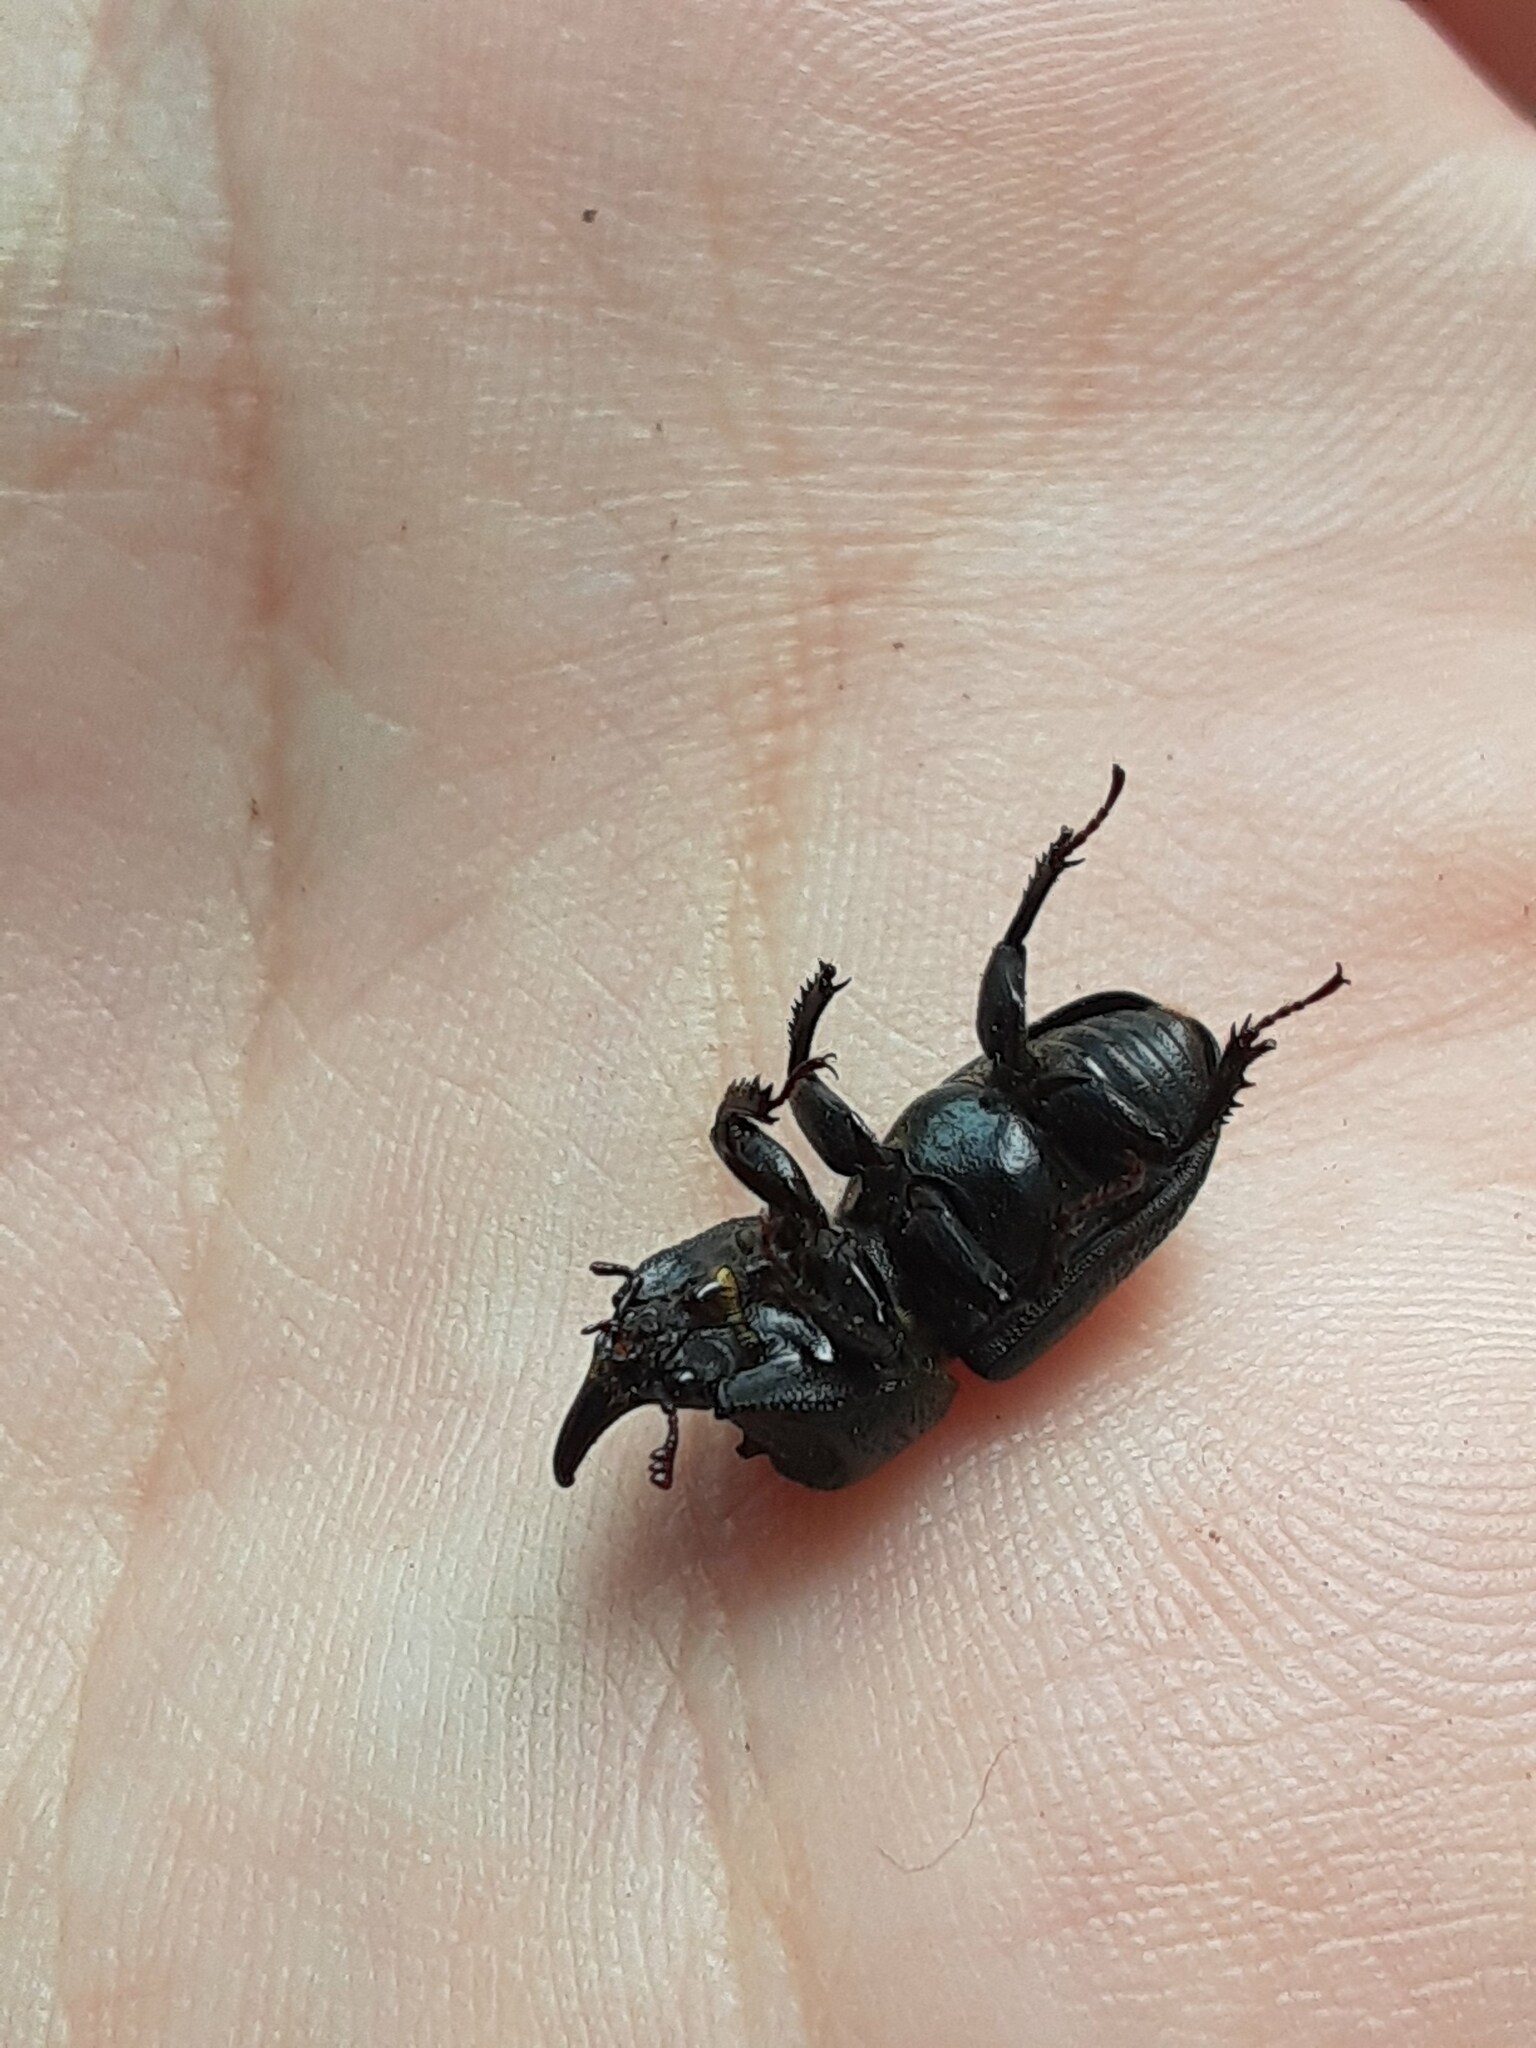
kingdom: Animalia
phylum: Arthropoda
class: Insecta
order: Coleoptera
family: Lucanidae
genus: Sinodendron
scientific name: Sinodendron rugosum
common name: Rugose stag beelte
